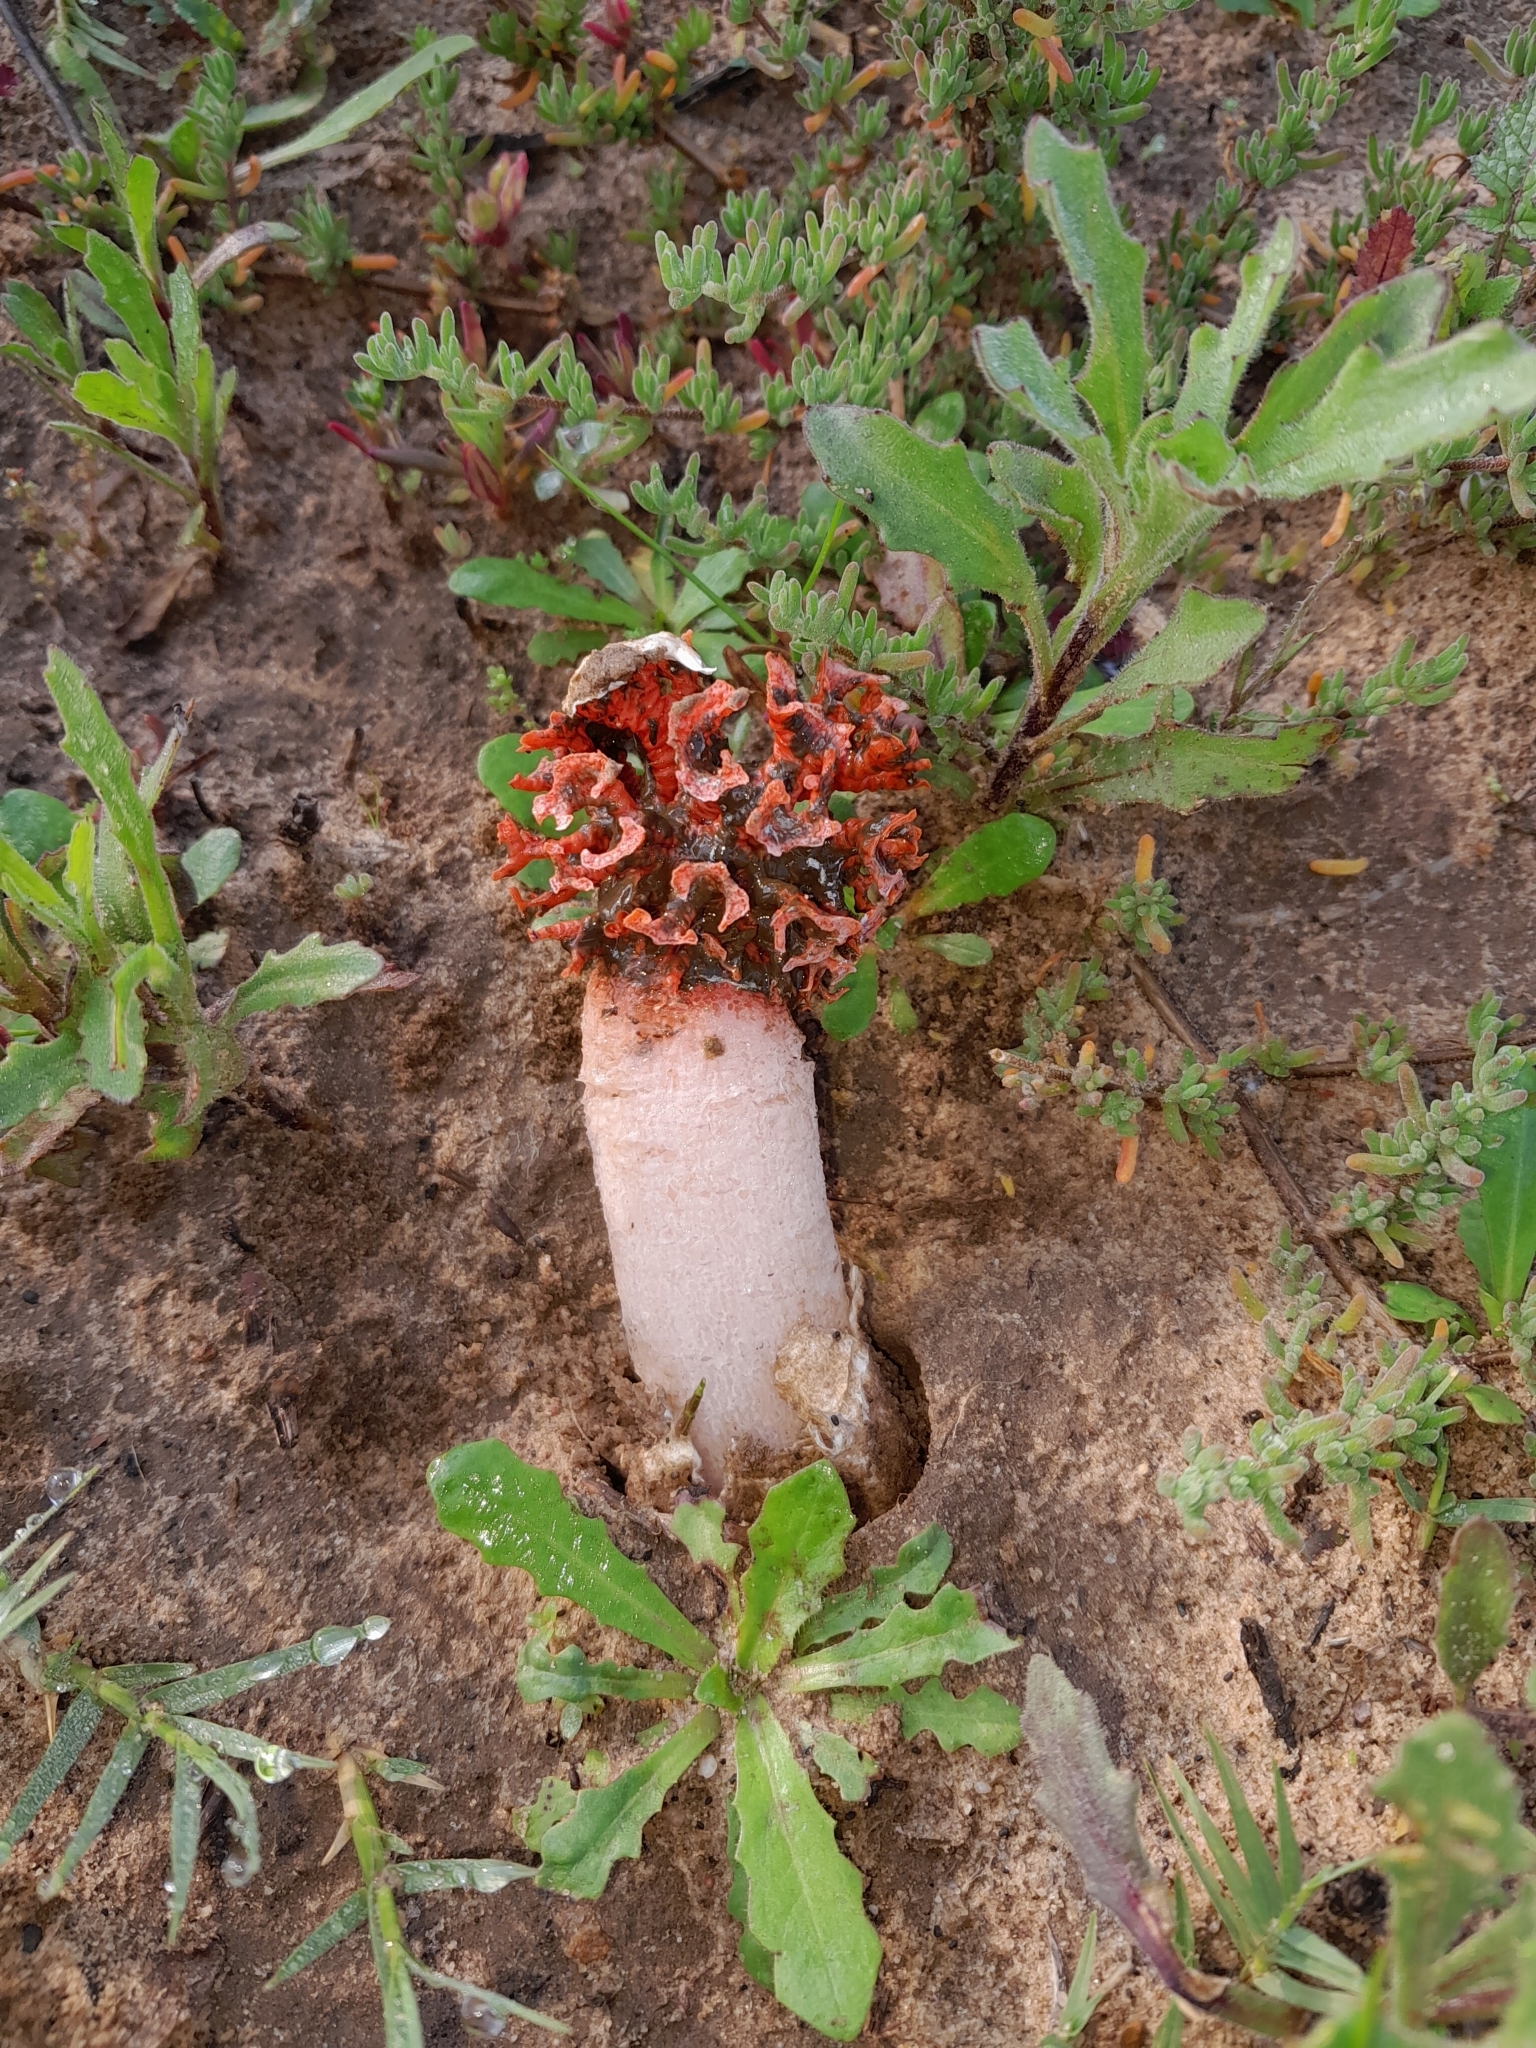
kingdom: Fungi
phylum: Basidiomycota
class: Agaricomycetes
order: Phallales
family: Phallaceae
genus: Lysurus
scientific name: Lysurus corallocephalus
